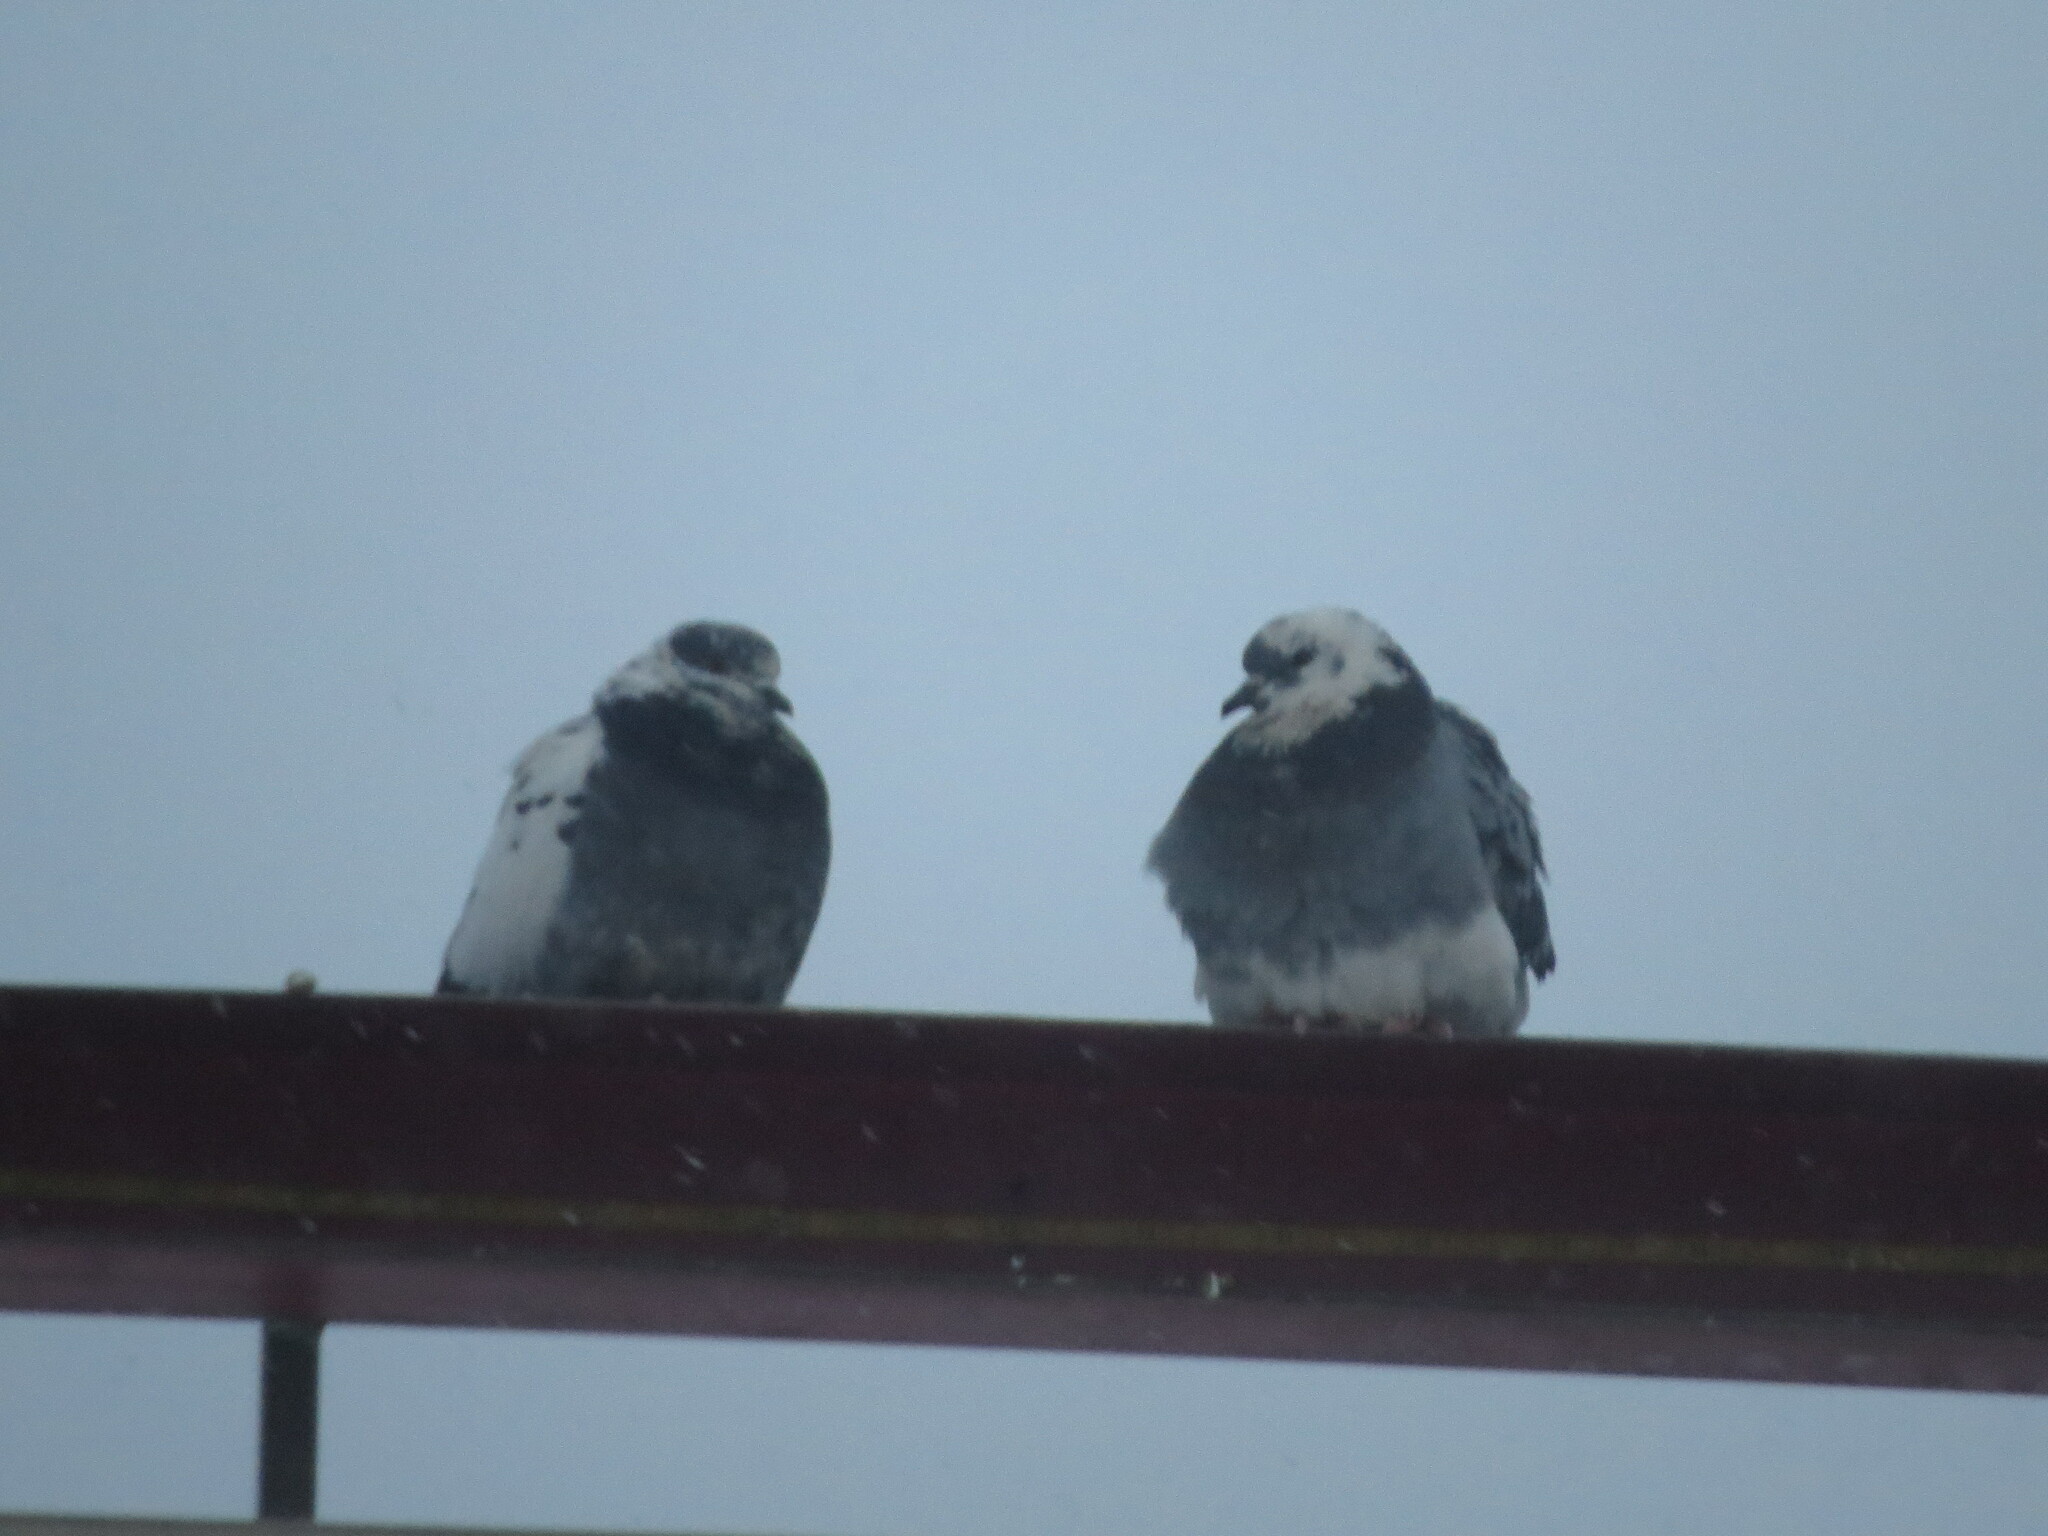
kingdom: Animalia
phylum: Chordata
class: Aves
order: Columbiformes
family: Columbidae
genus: Columba
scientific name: Columba livia
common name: Rock pigeon
